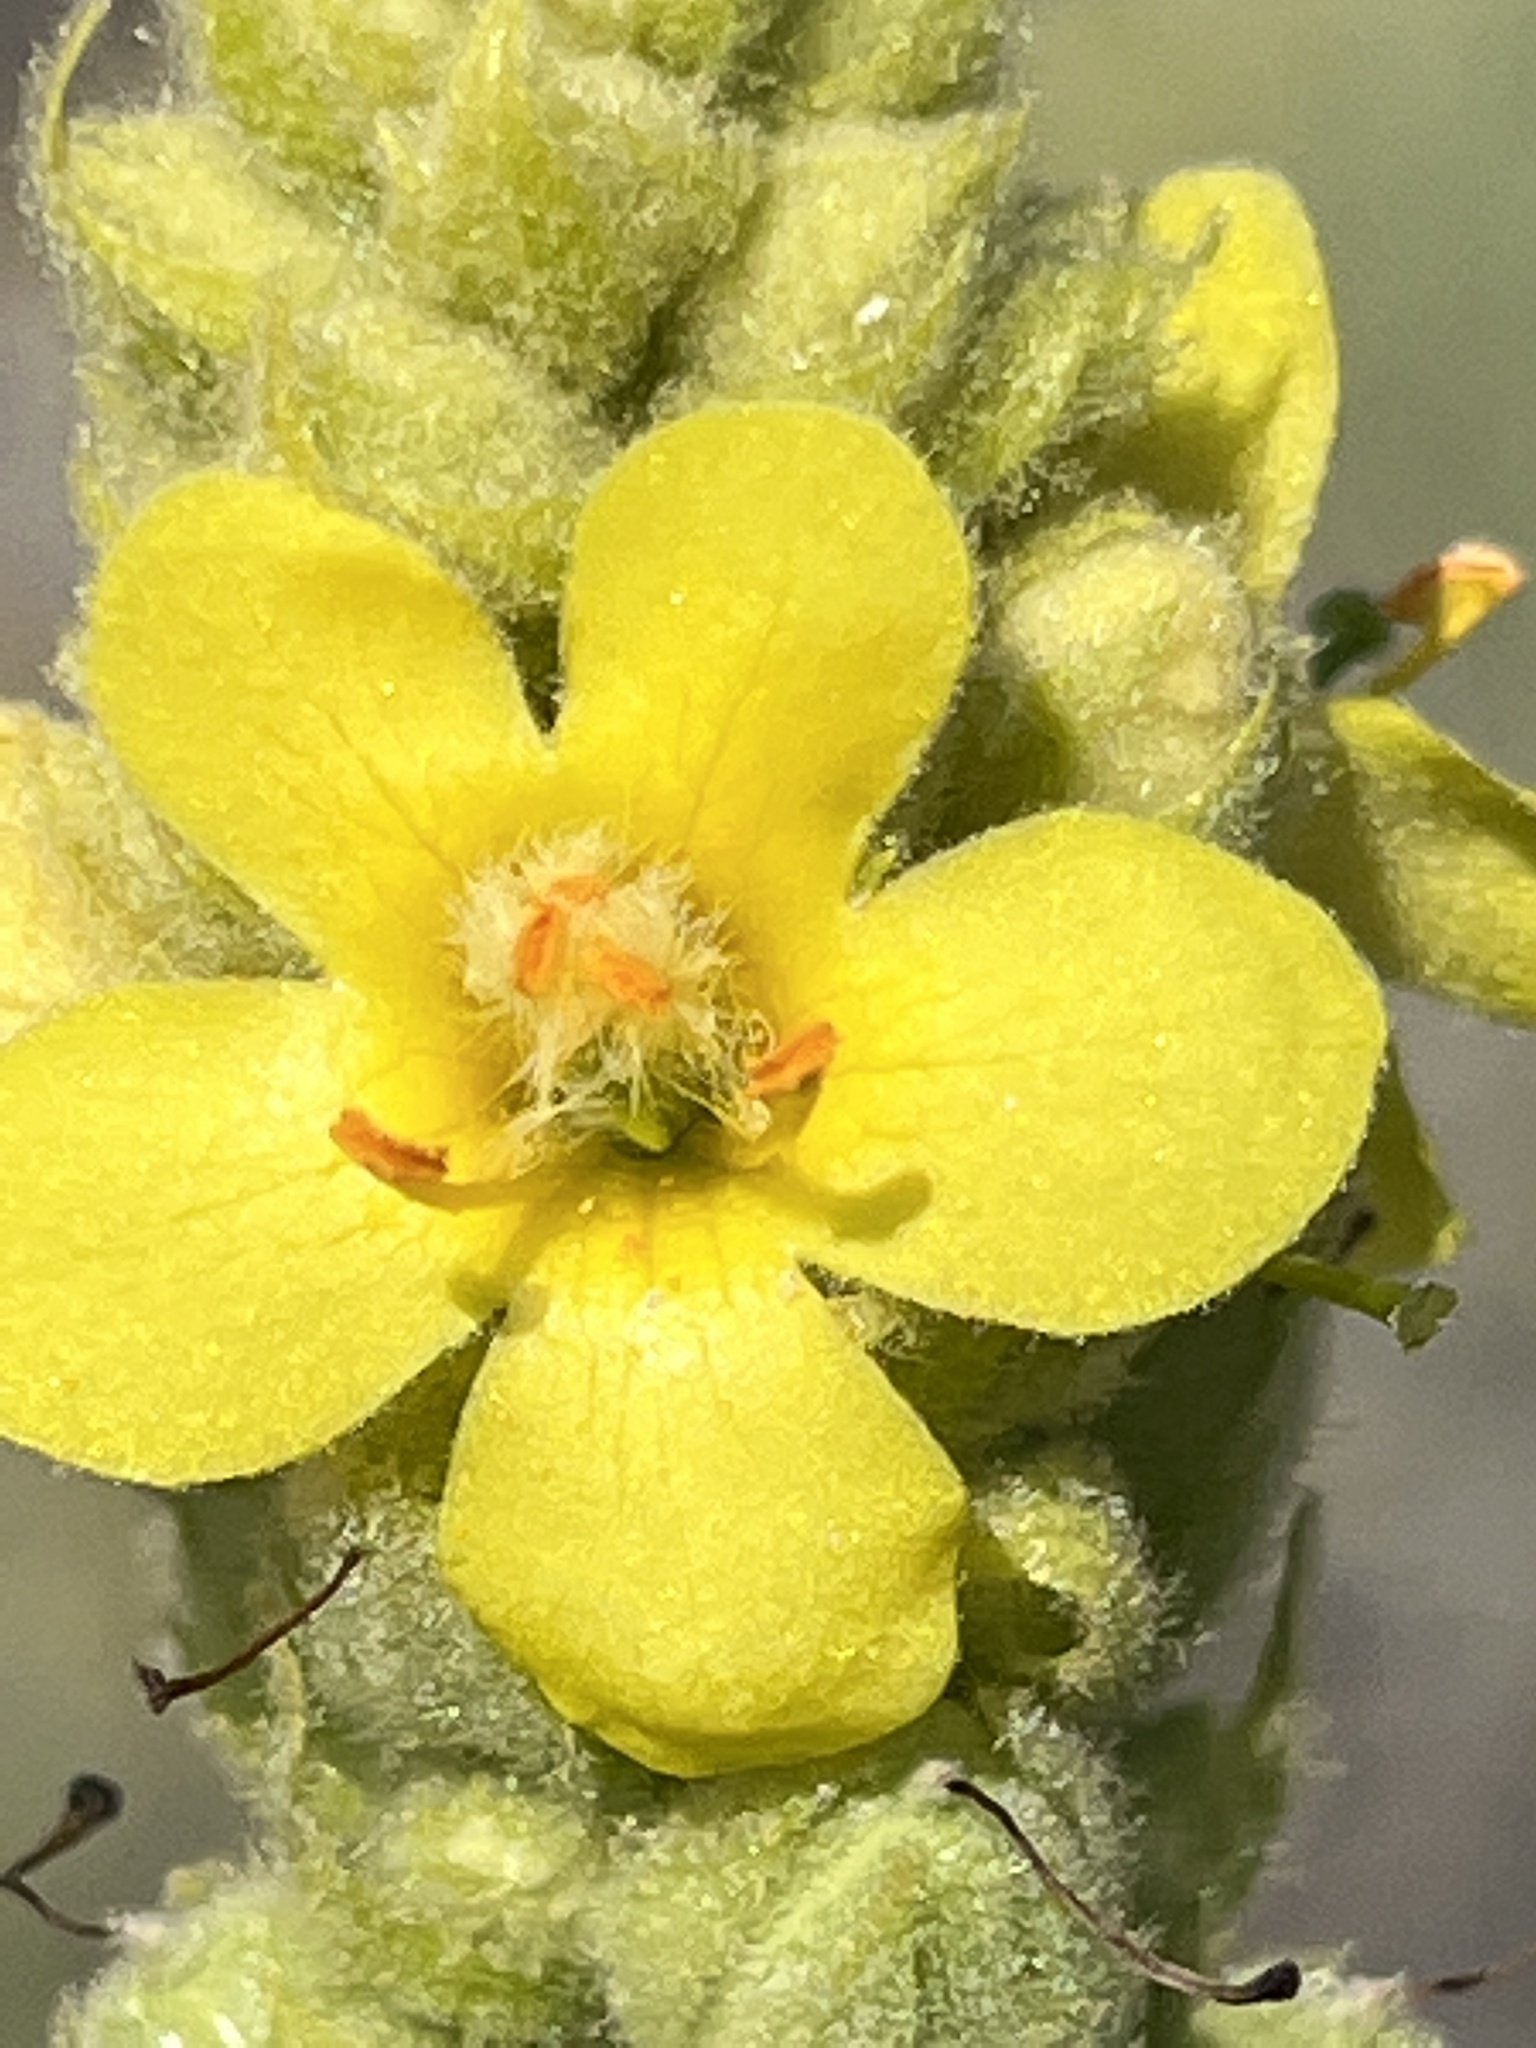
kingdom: Plantae
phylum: Tracheophyta
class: Magnoliopsida
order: Lamiales
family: Scrophulariaceae
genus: Verbascum
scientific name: Verbascum thapsus
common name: Common mullein
